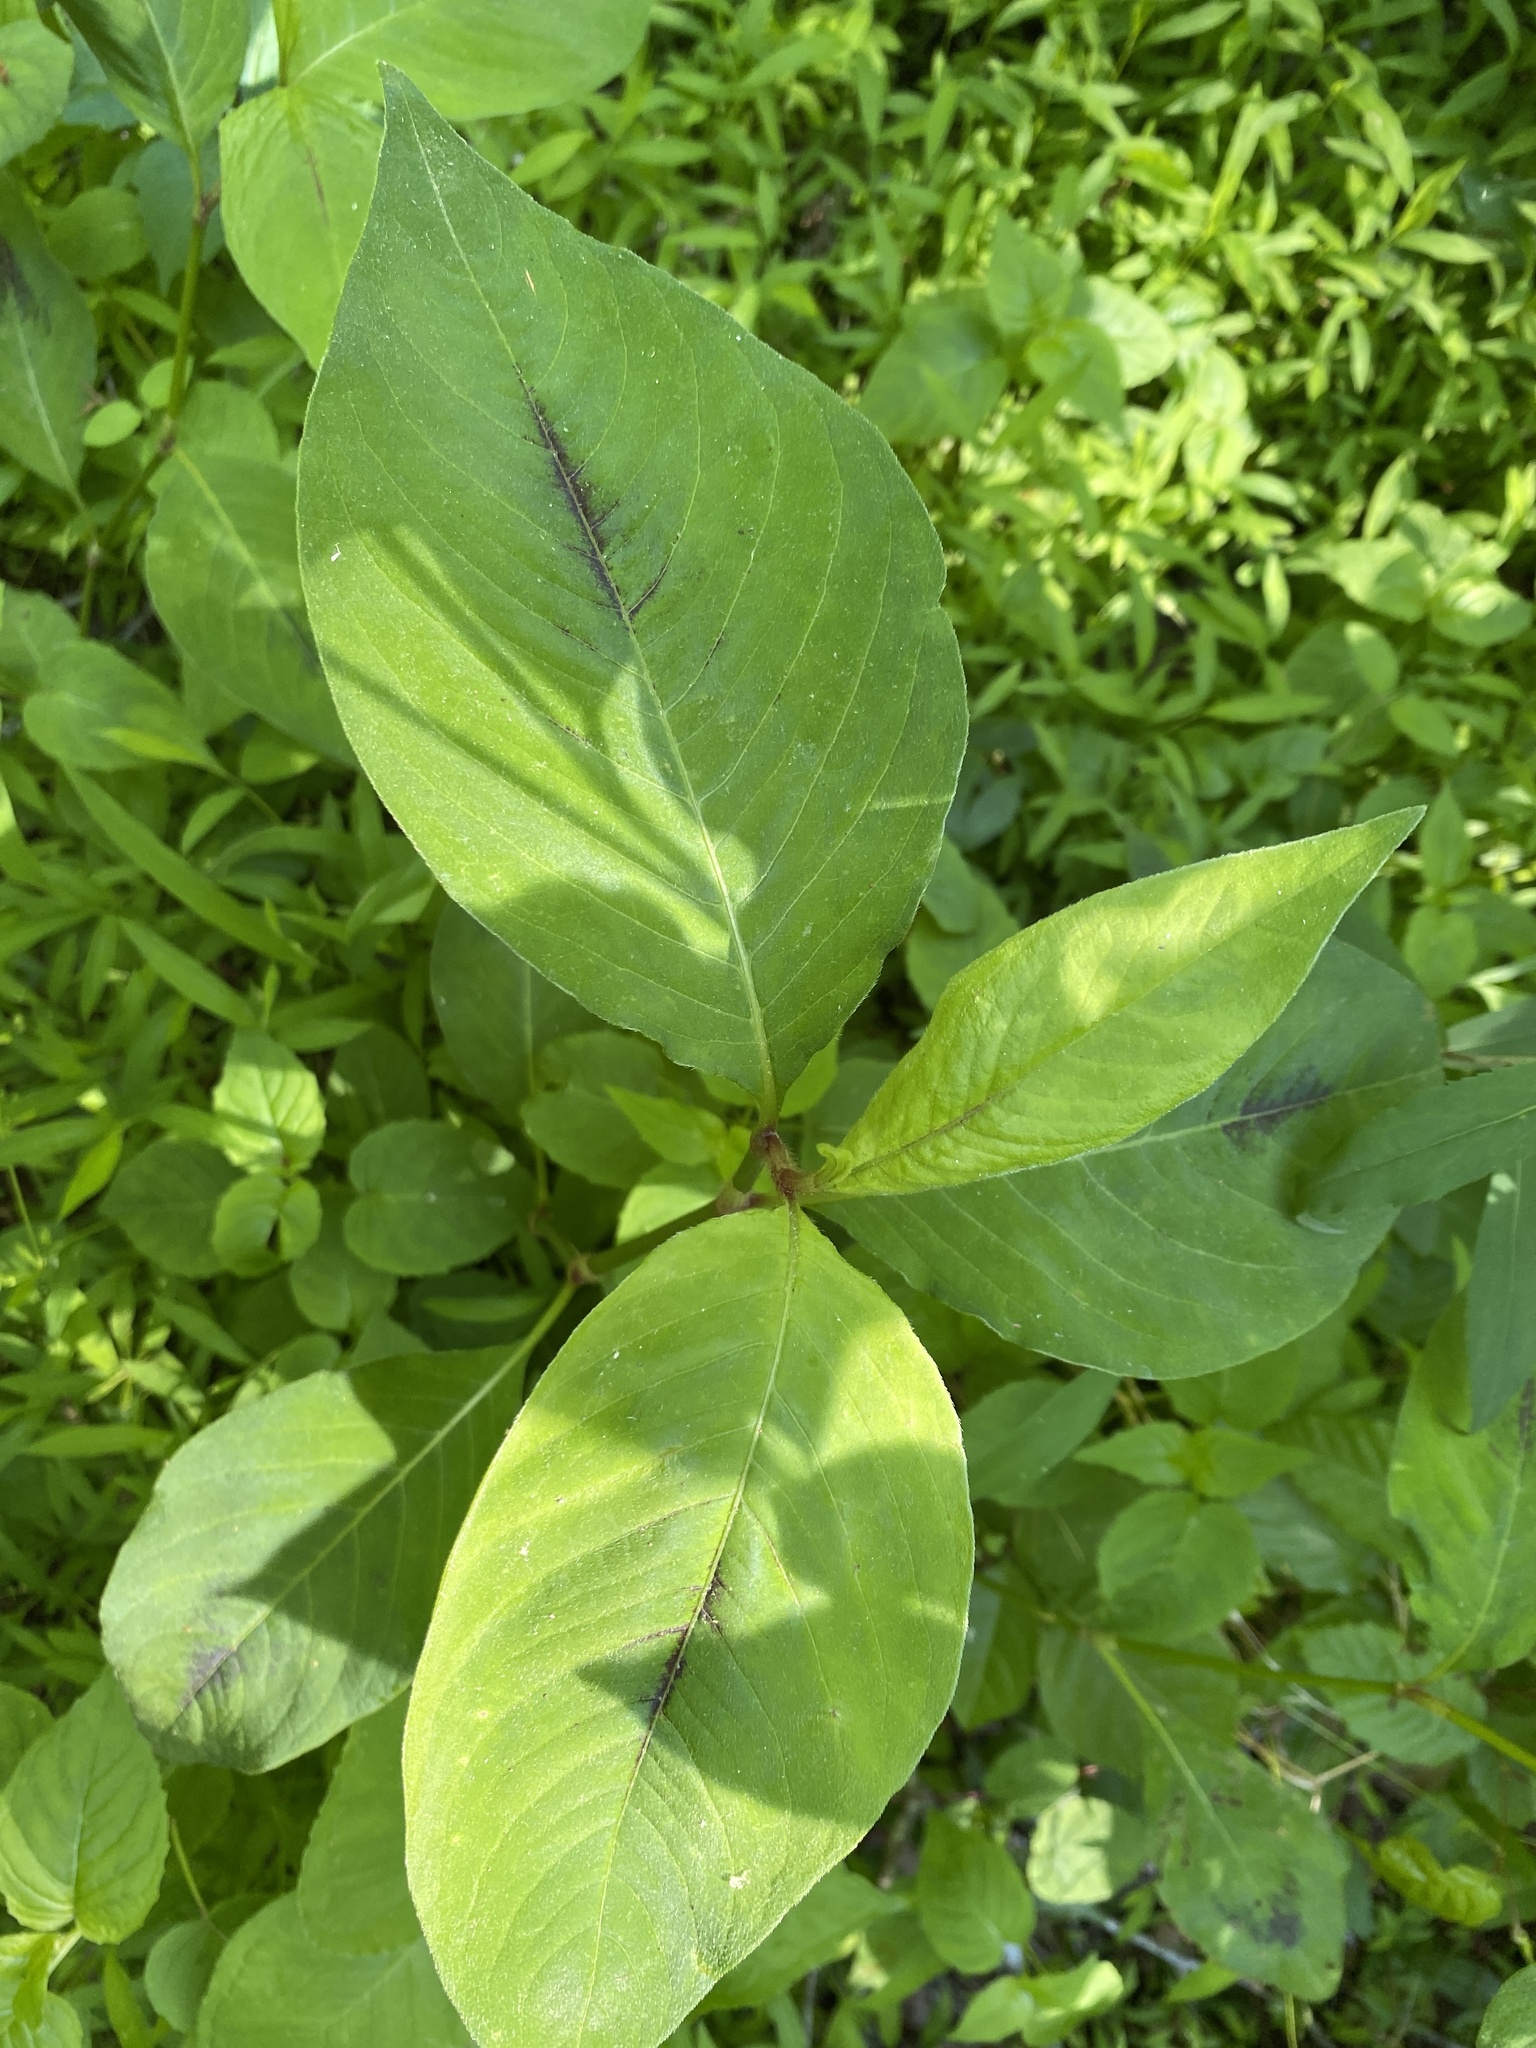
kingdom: Plantae
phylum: Tracheophyta
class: Magnoliopsida
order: Caryophyllales
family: Polygonaceae
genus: Persicaria
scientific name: Persicaria virginiana
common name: Jumpseed
